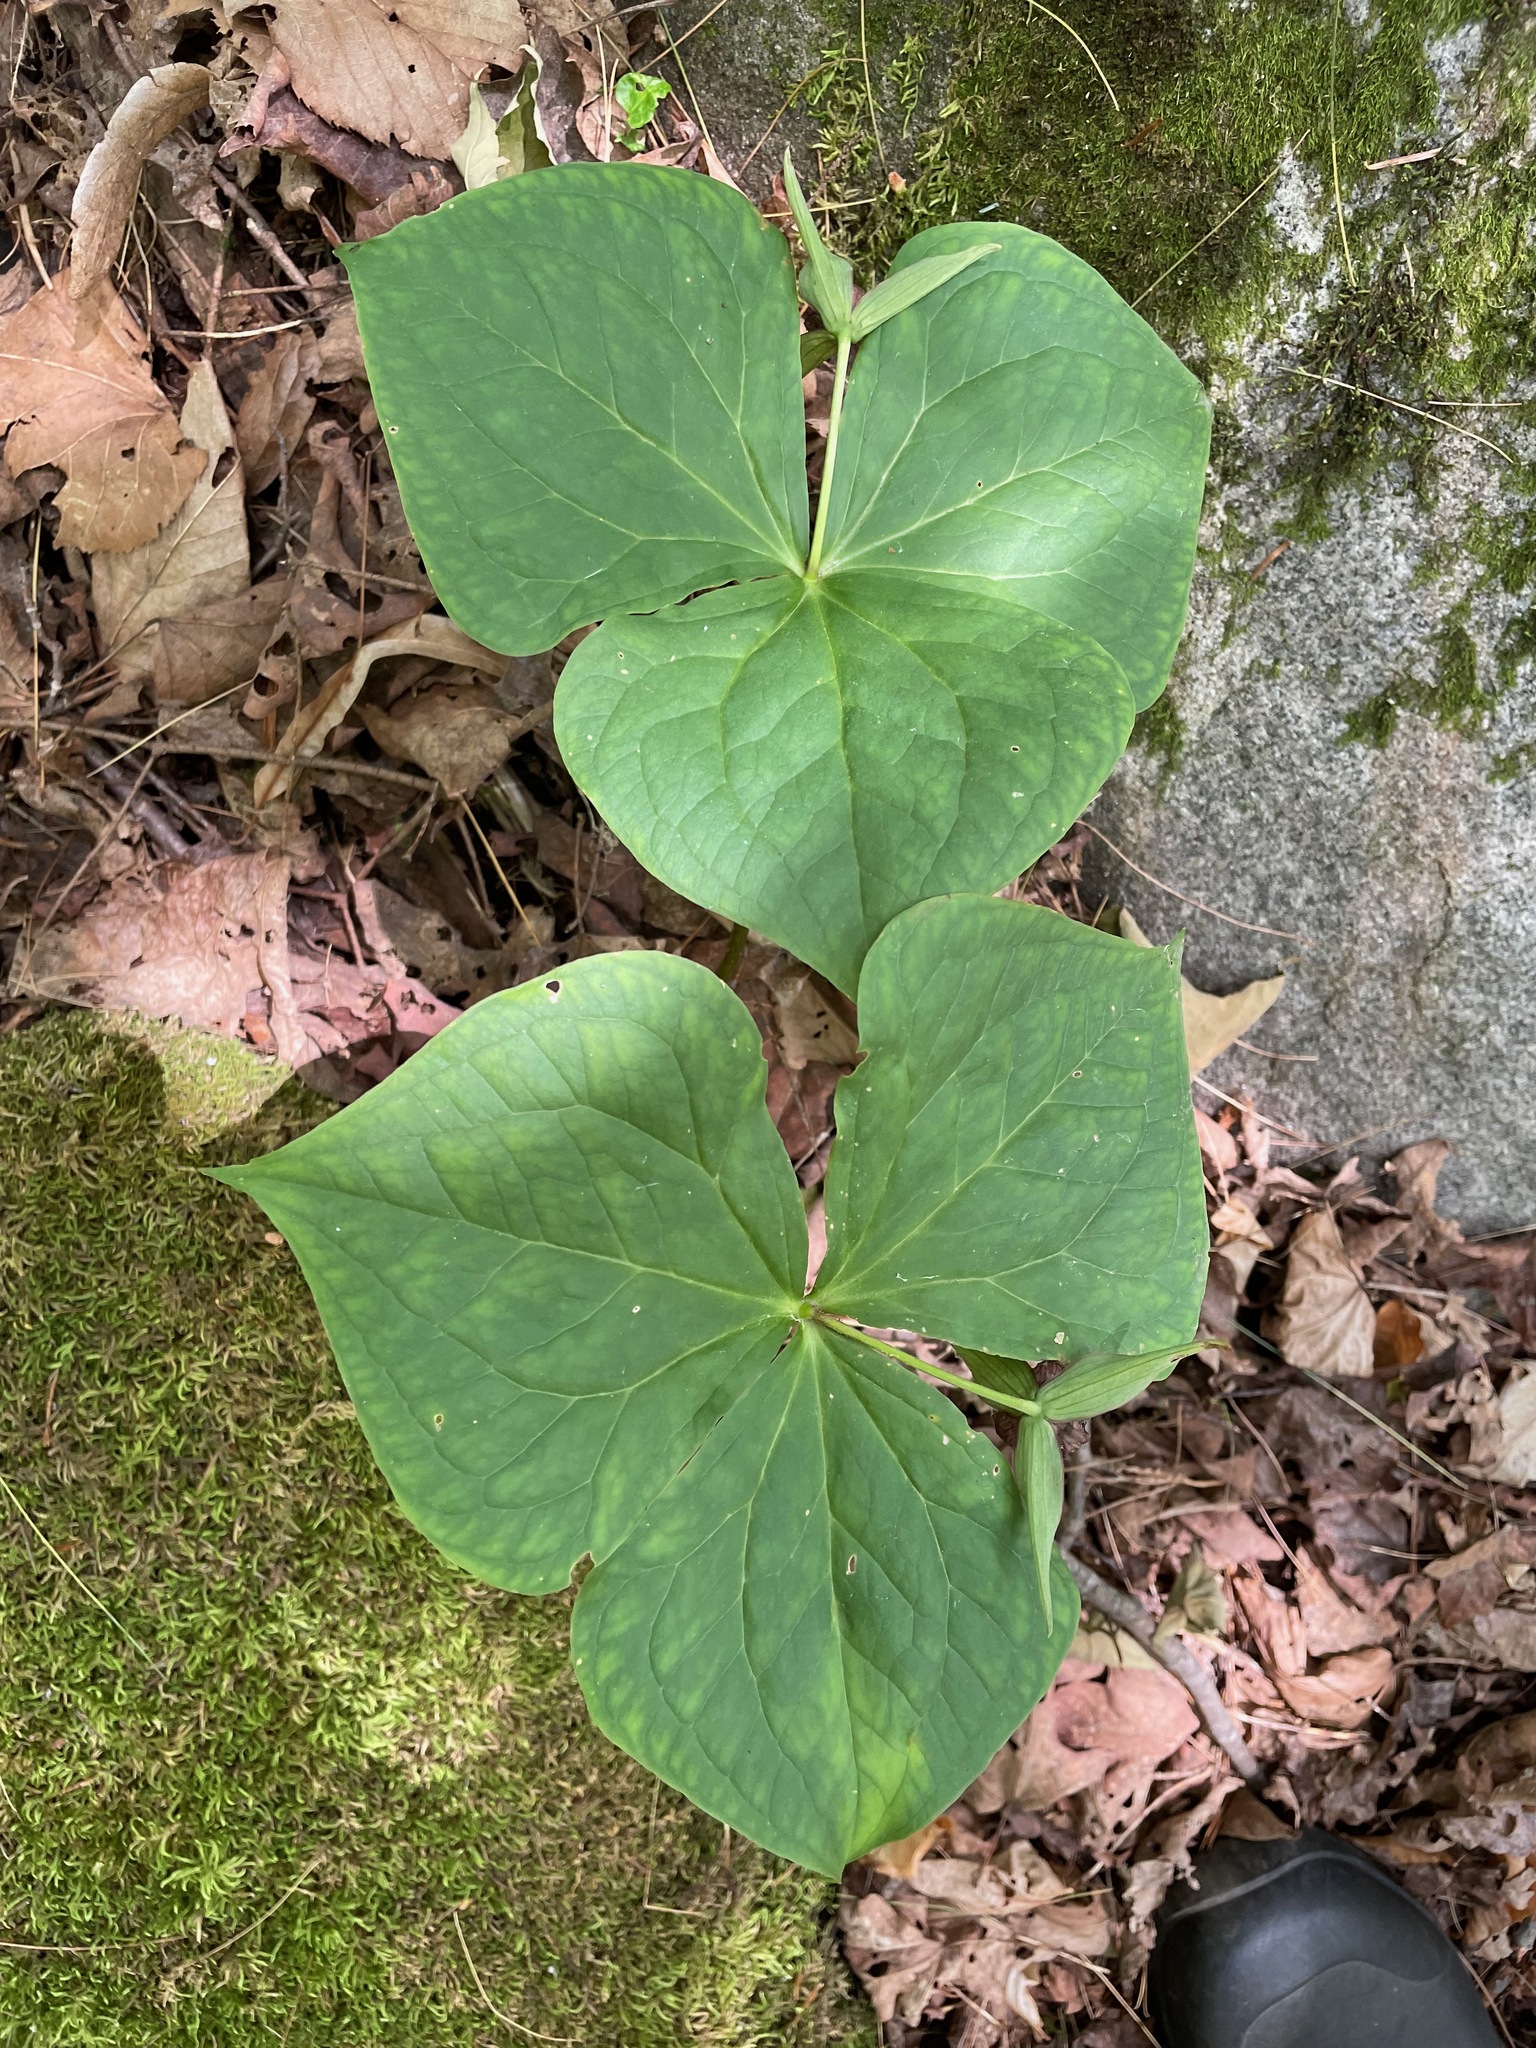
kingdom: Plantae
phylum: Tracheophyta
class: Liliopsida
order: Liliales
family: Melanthiaceae
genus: Trillium
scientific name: Trillium erectum
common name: Purple trillium
